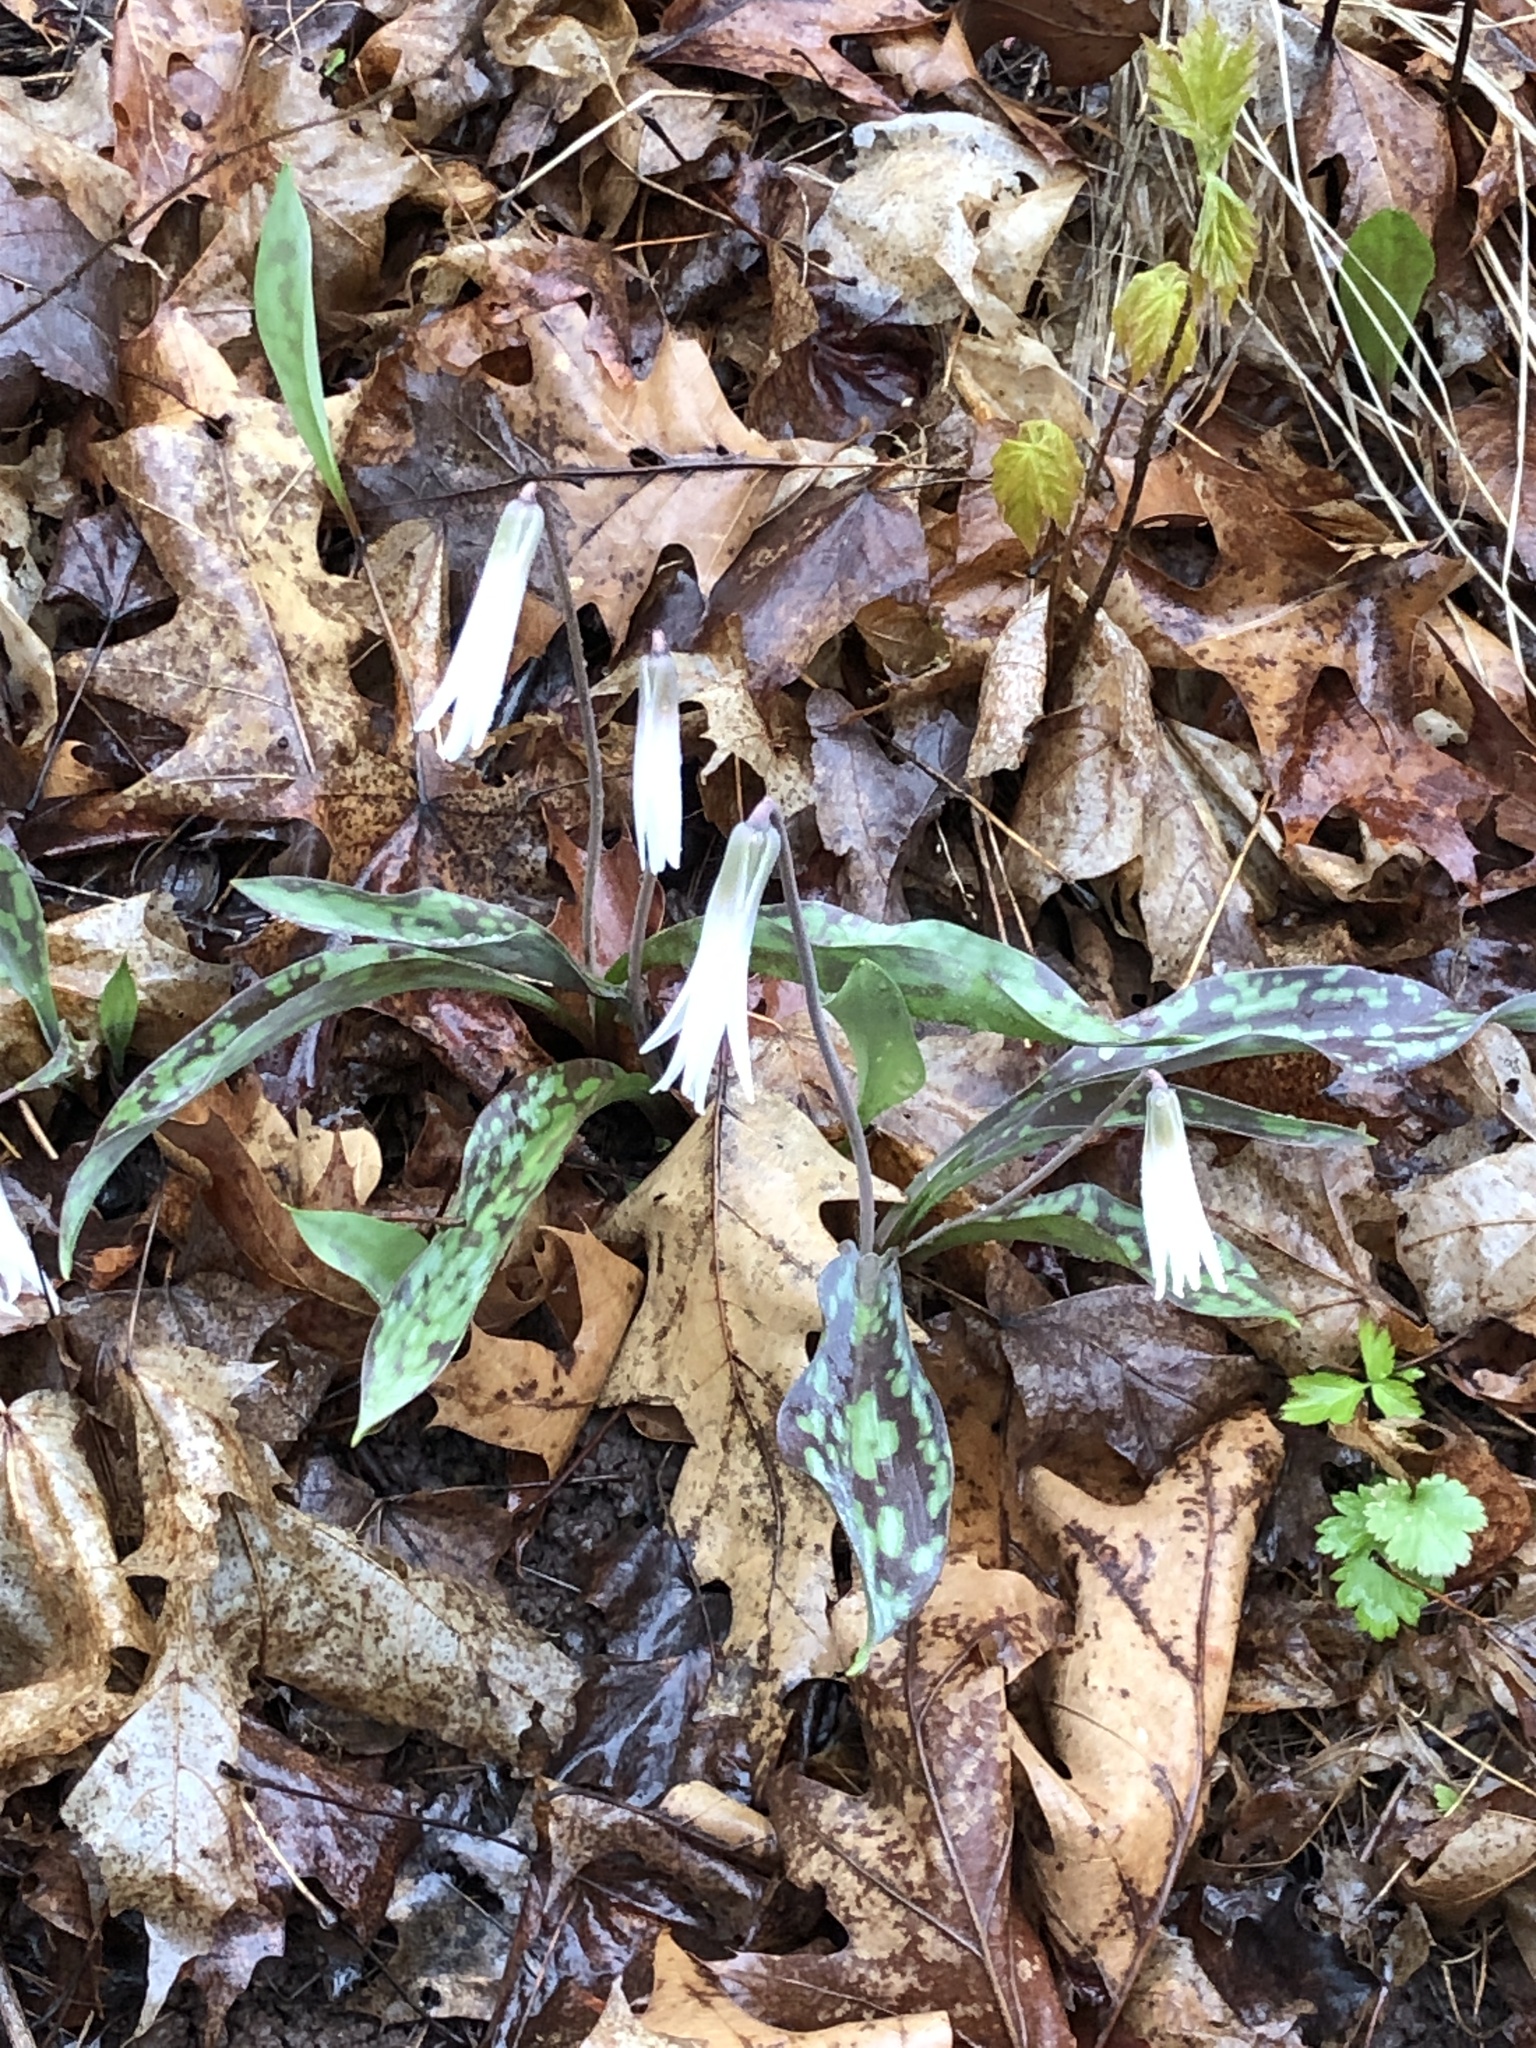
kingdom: Plantae
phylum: Tracheophyta
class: Liliopsida
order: Liliales
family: Liliaceae
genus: Erythronium
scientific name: Erythronium albidum
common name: White trout-lily
